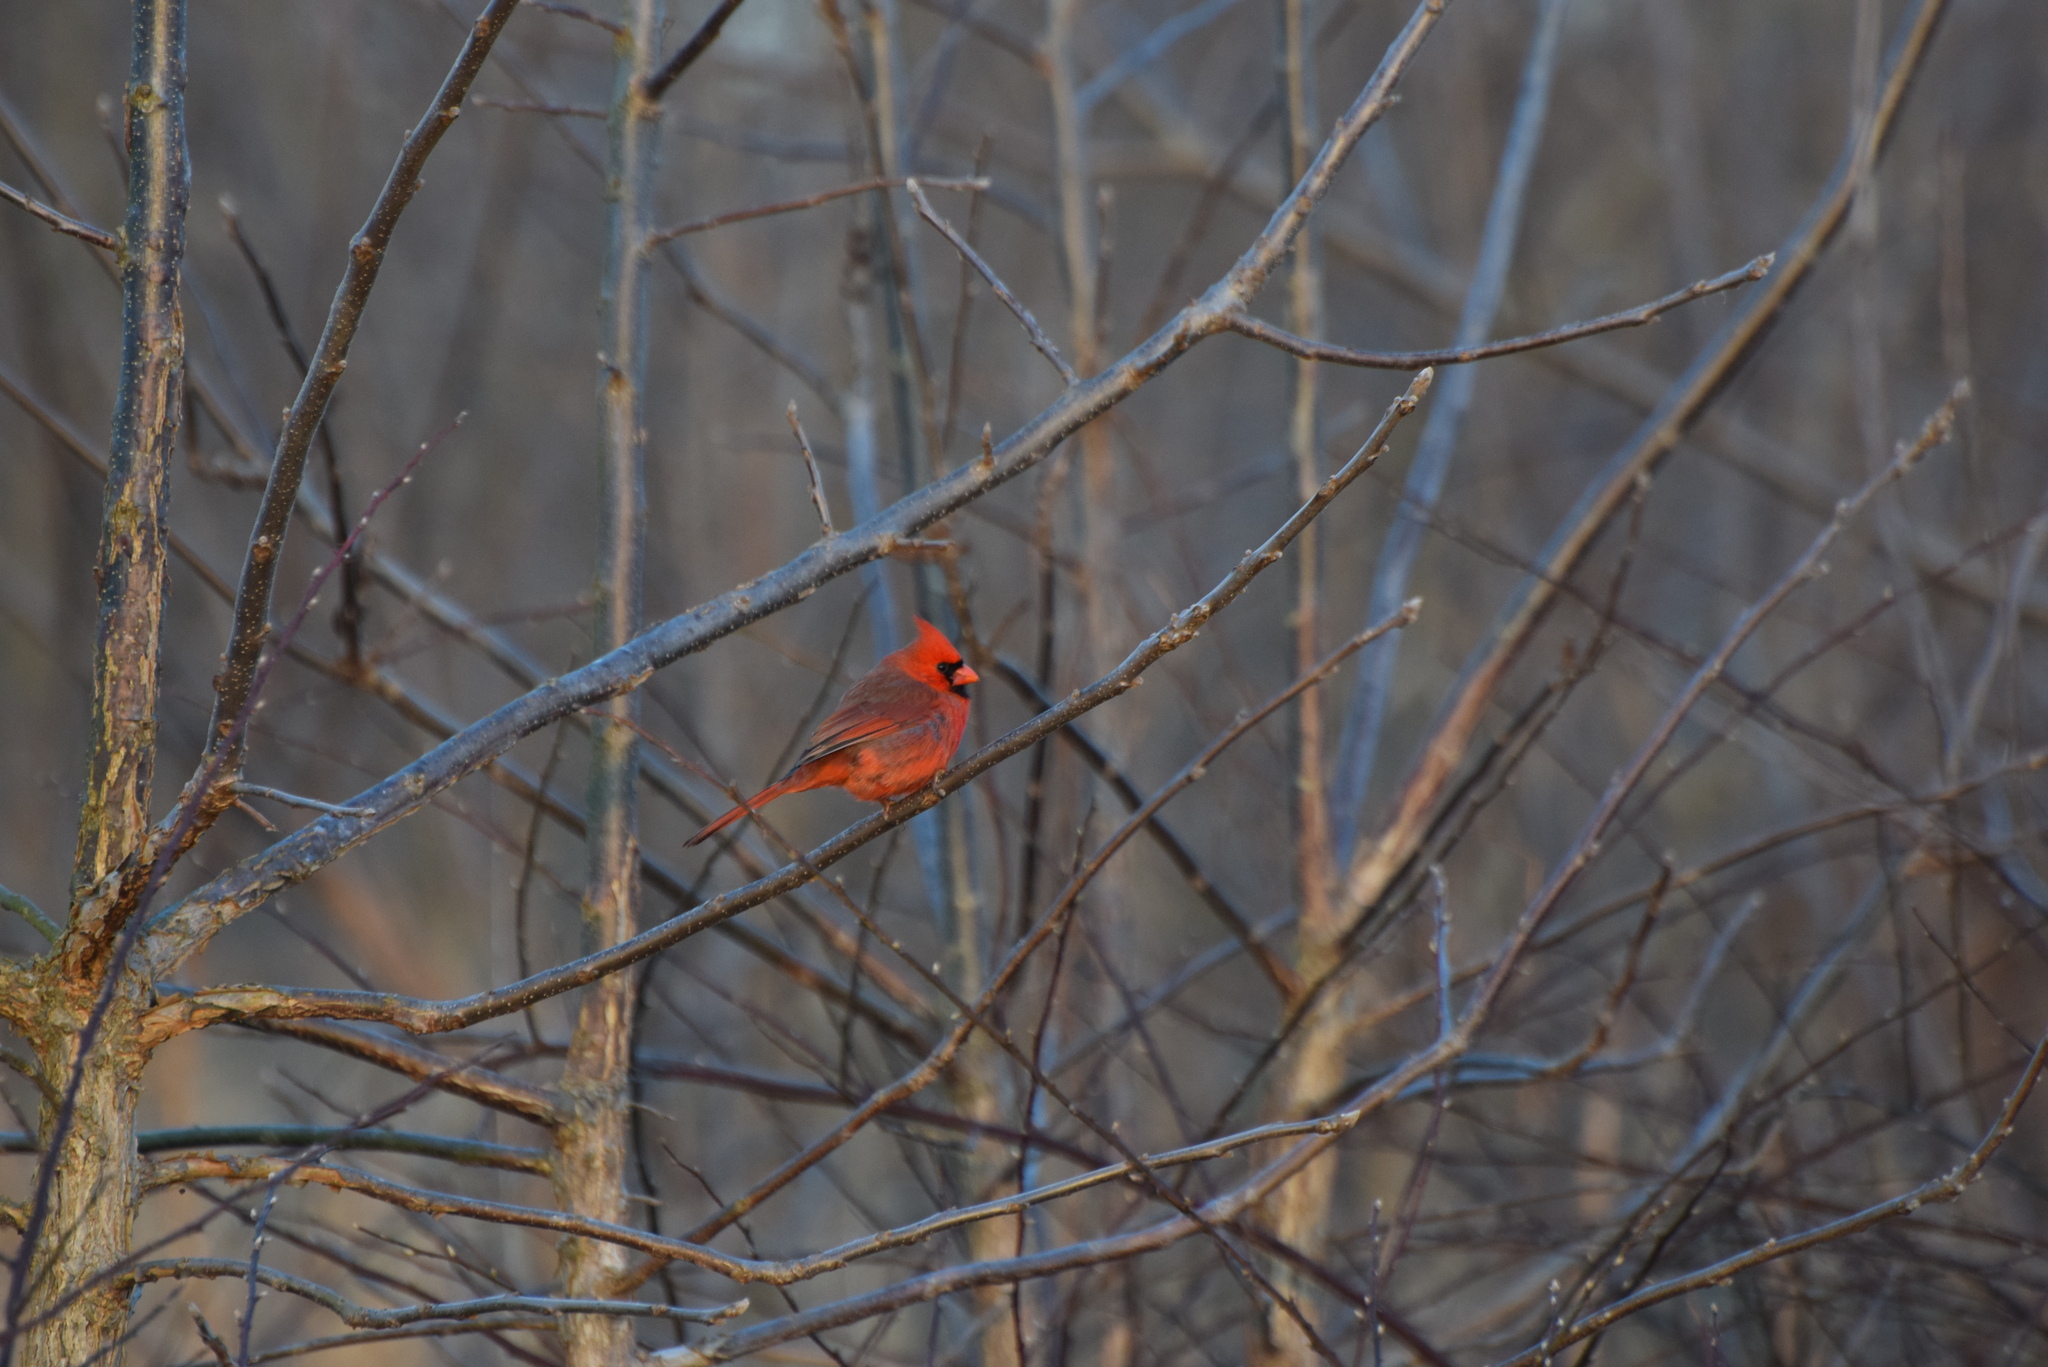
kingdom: Animalia
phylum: Chordata
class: Aves
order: Passeriformes
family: Cardinalidae
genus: Cardinalis
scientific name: Cardinalis cardinalis
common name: Northern cardinal
